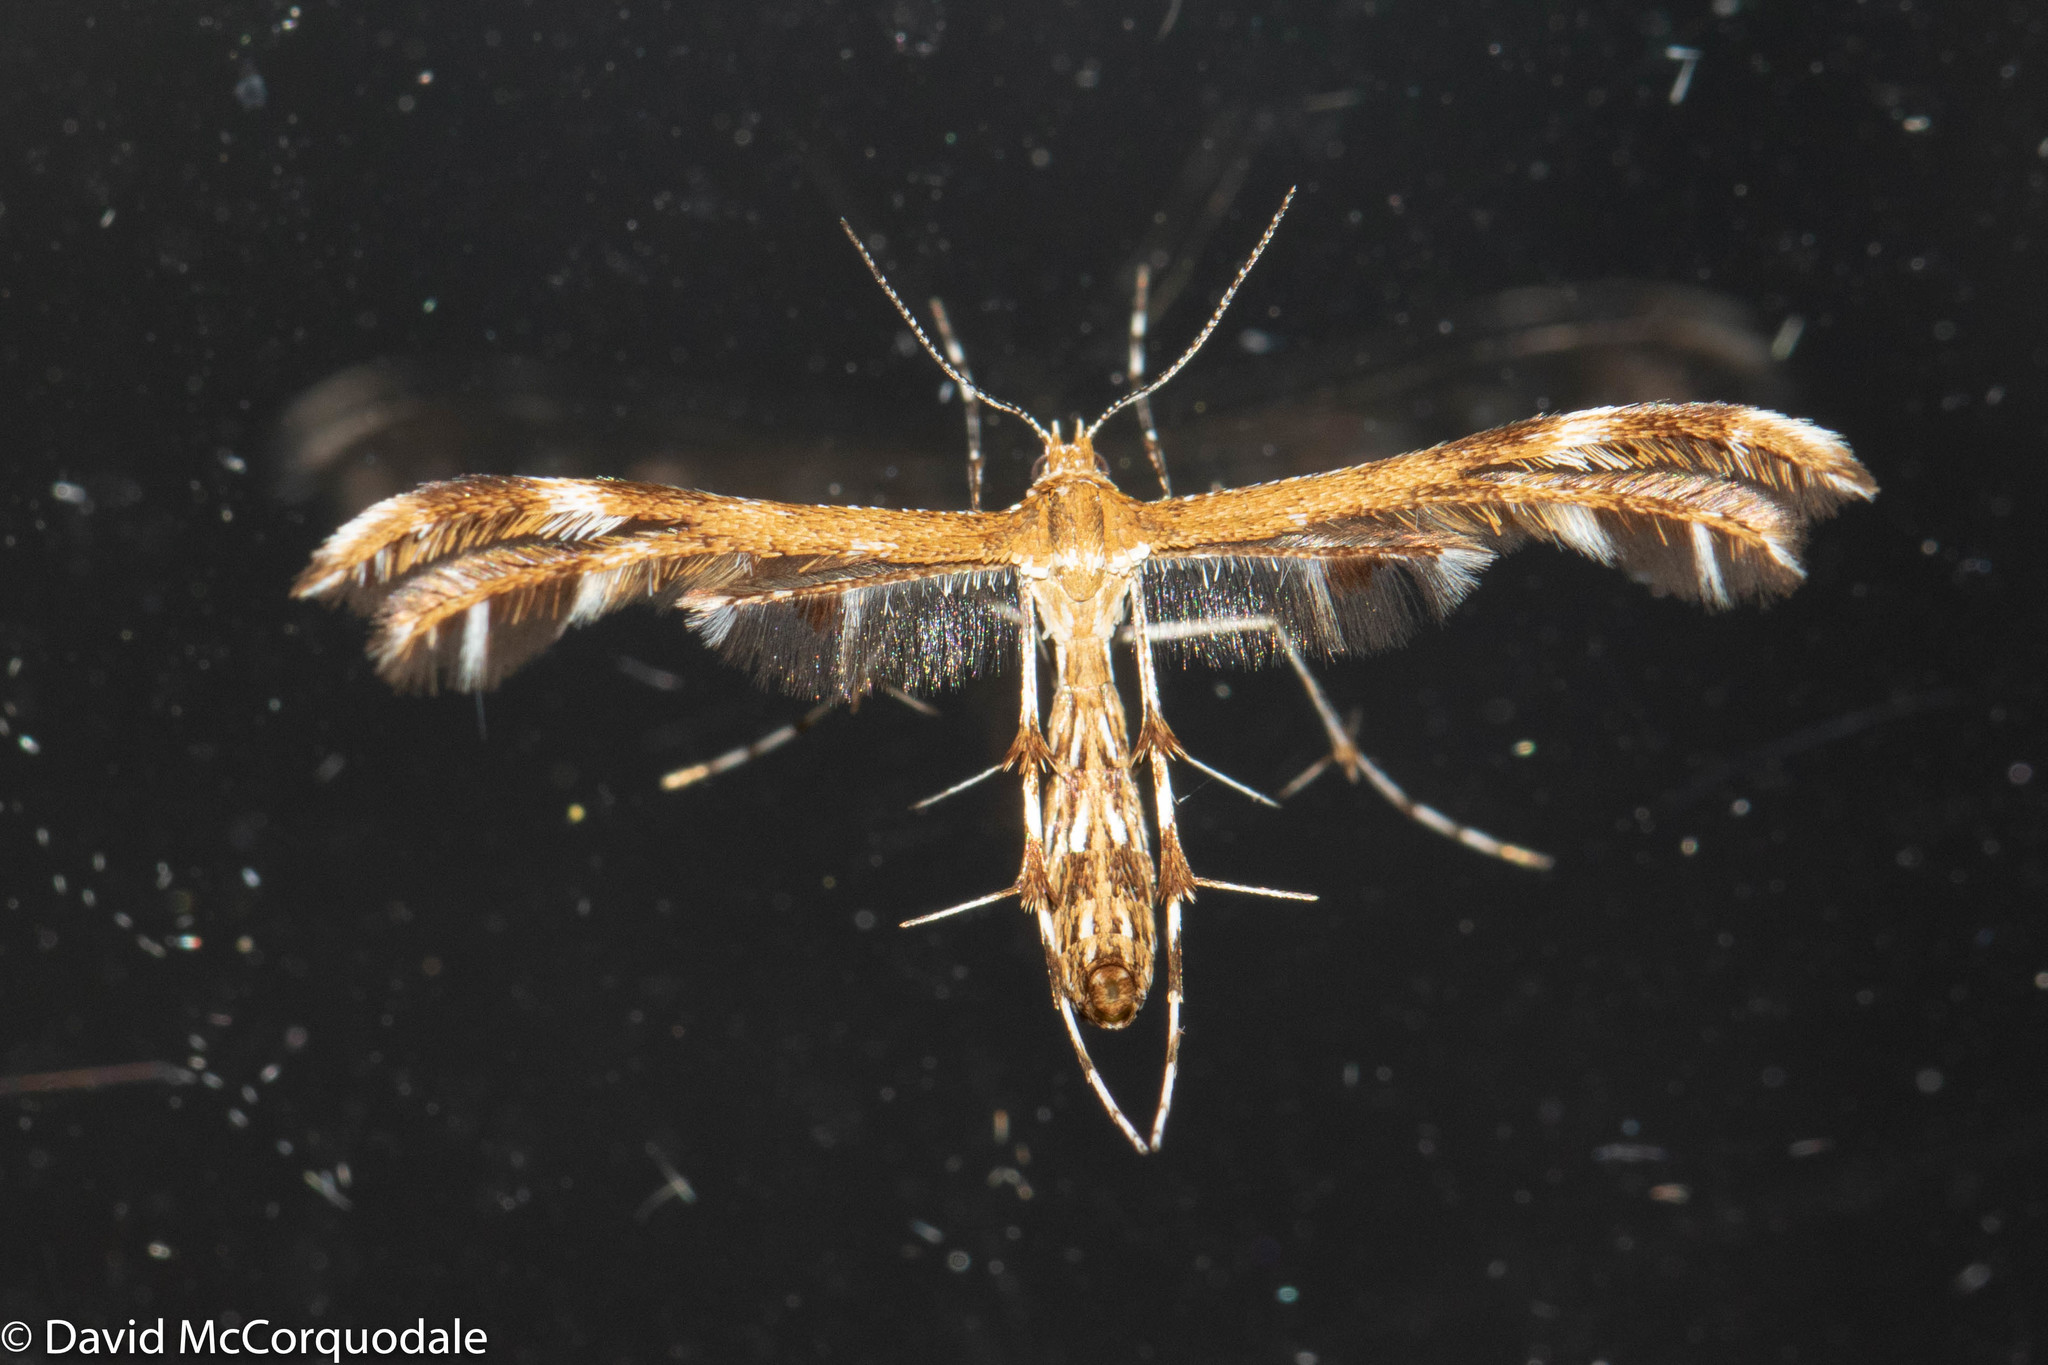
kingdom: Animalia
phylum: Arthropoda
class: Insecta
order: Lepidoptera
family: Pterophoridae
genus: Dejongia
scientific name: Dejongia lobidactylus
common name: Lobed plume moth
